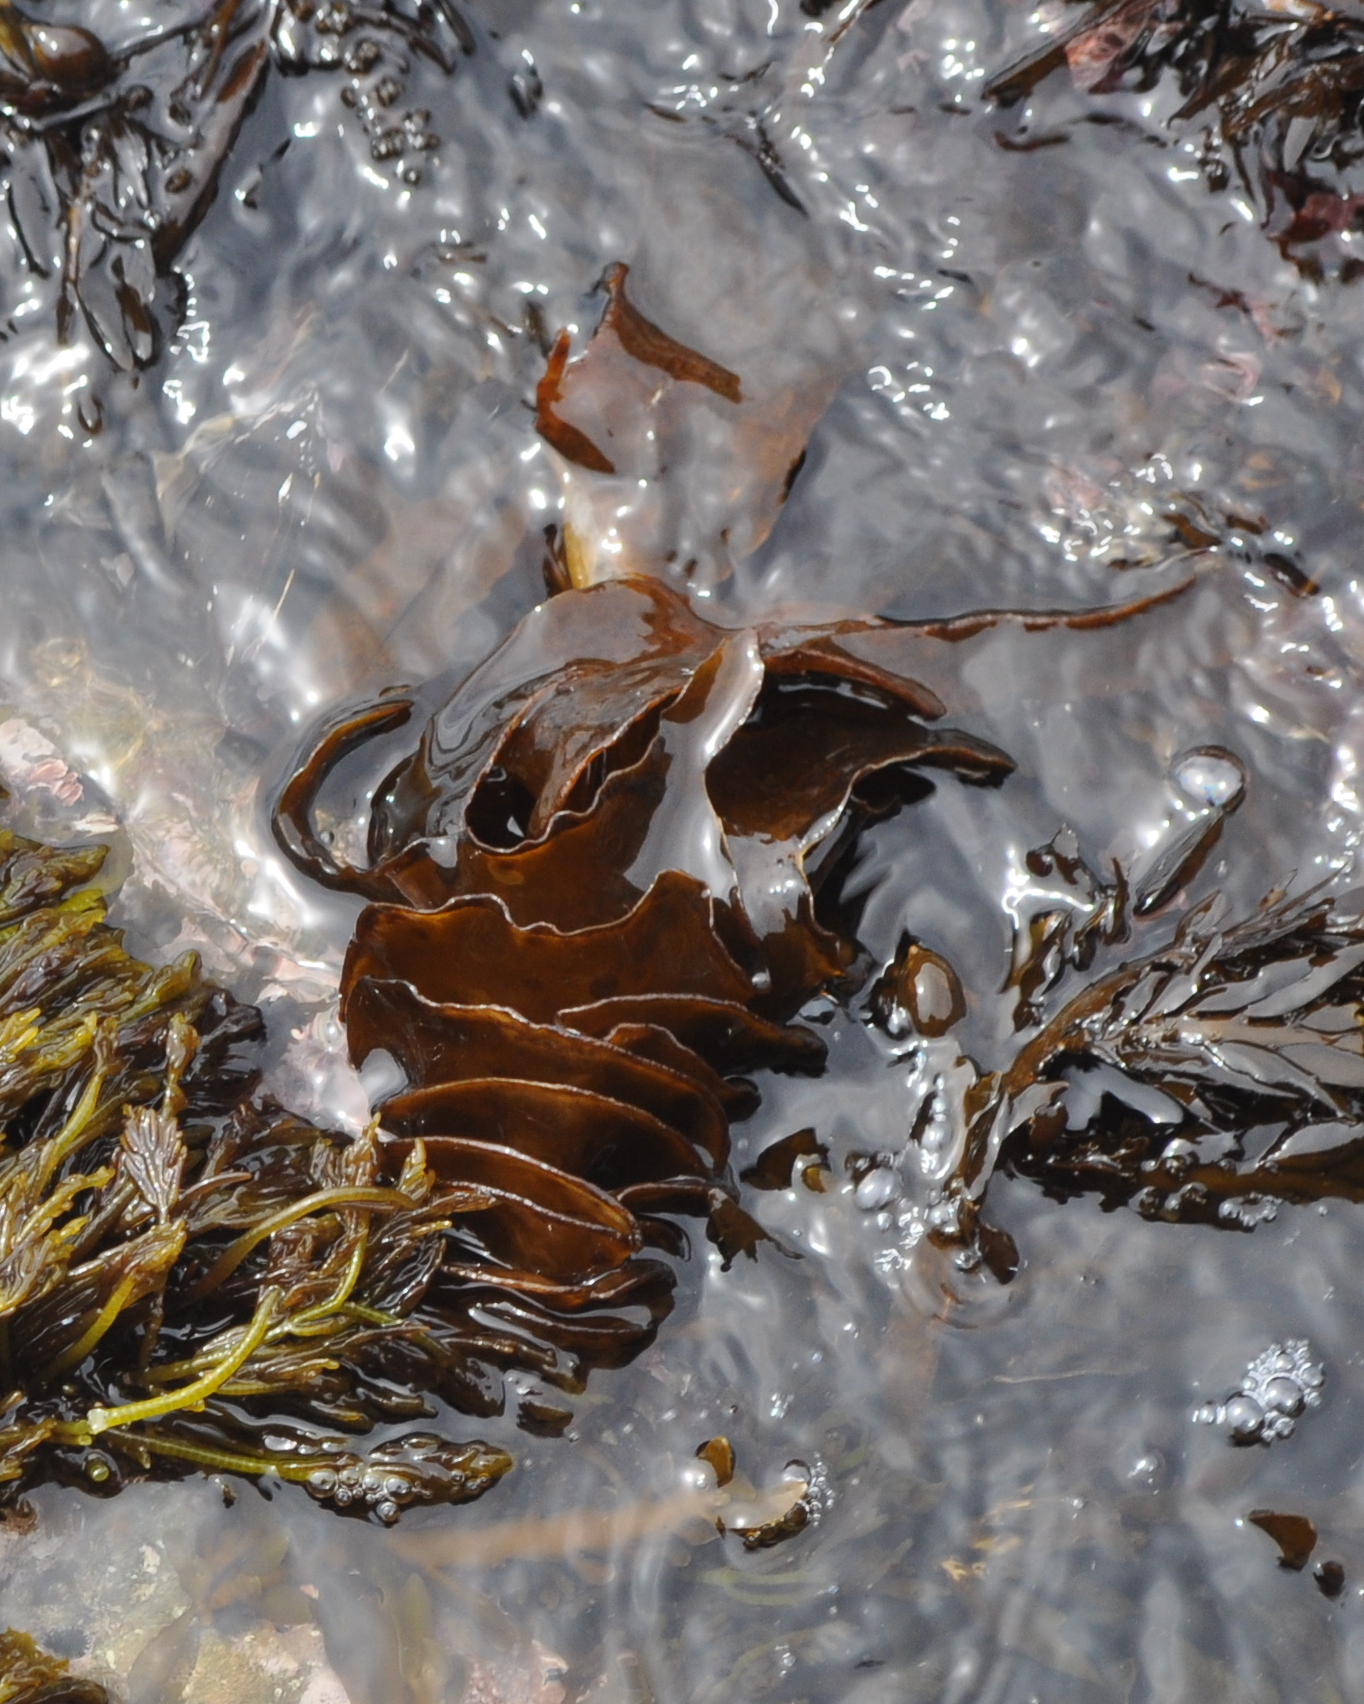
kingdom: Chromista
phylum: Ochrophyta
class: Phaeophyceae
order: Laminariales
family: Alariaceae
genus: Undaria
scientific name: Undaria pinnatifida
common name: Asian kelp
